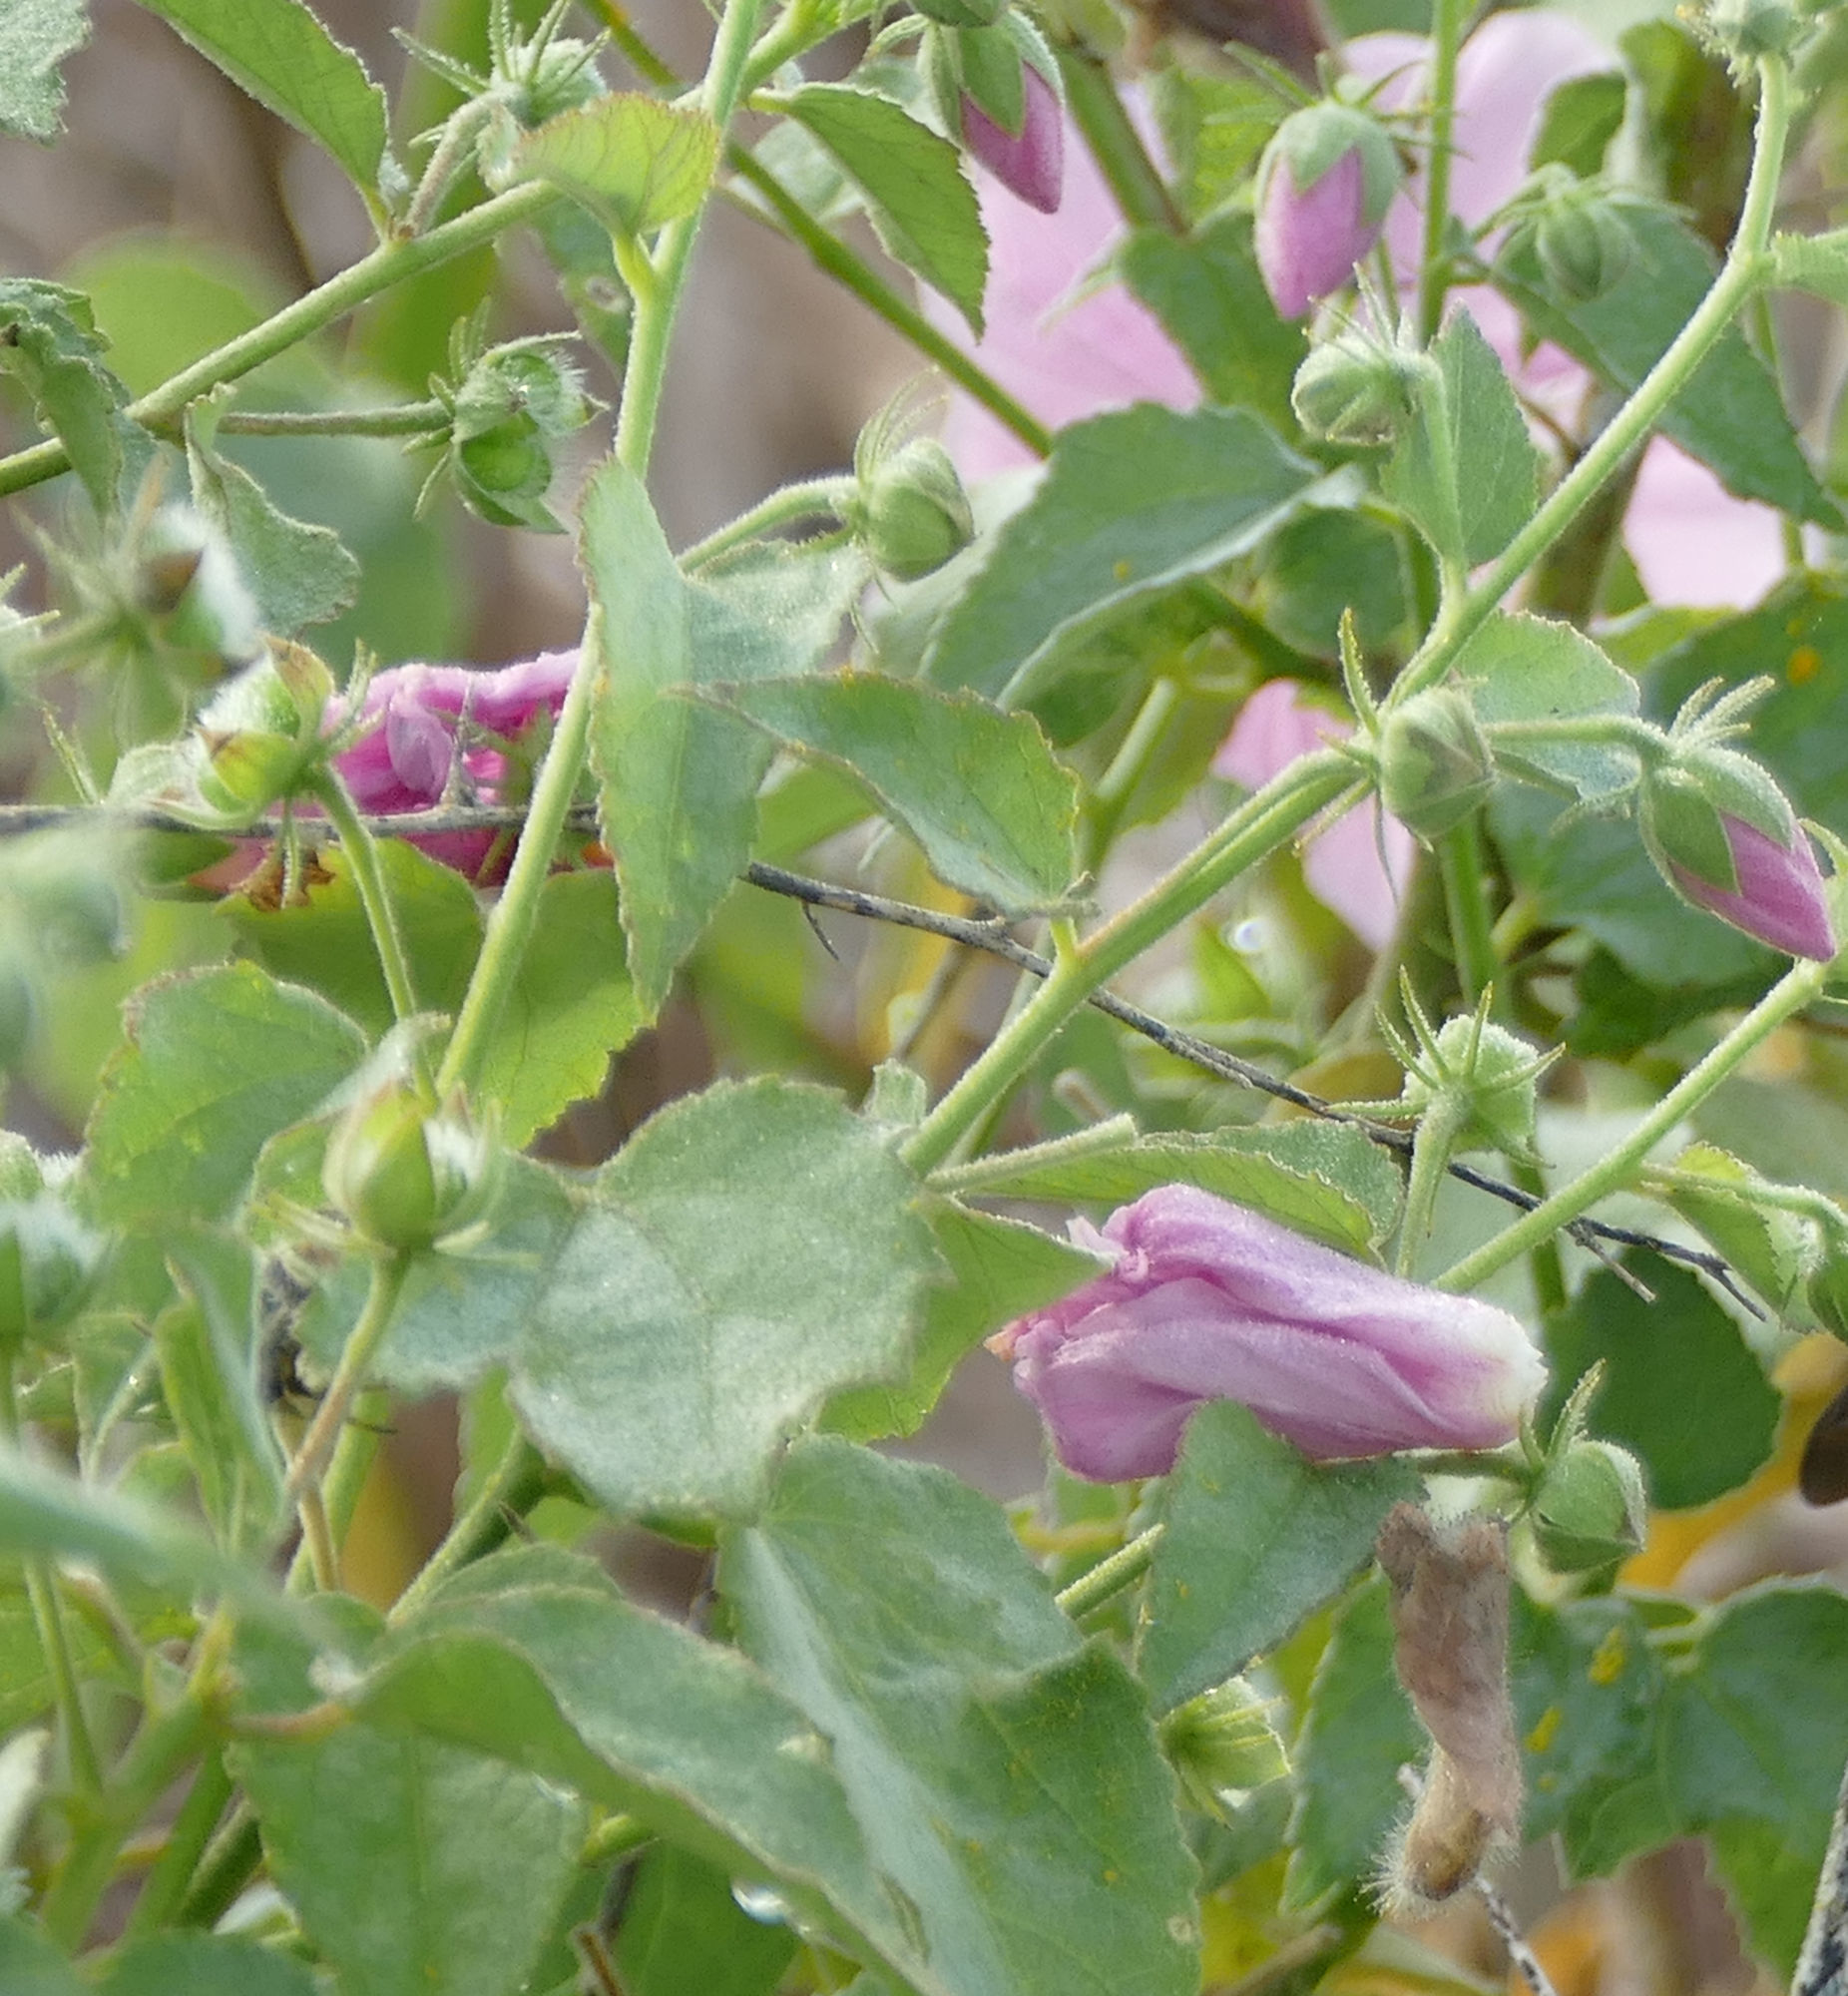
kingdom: Plantae
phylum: Tracheophyta
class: Magnoliopsida
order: Malvales
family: Malvaceae
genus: Kosteletzkya
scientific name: Kosteletzkya pentacarpos
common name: Virginia saltmarsh mallow
